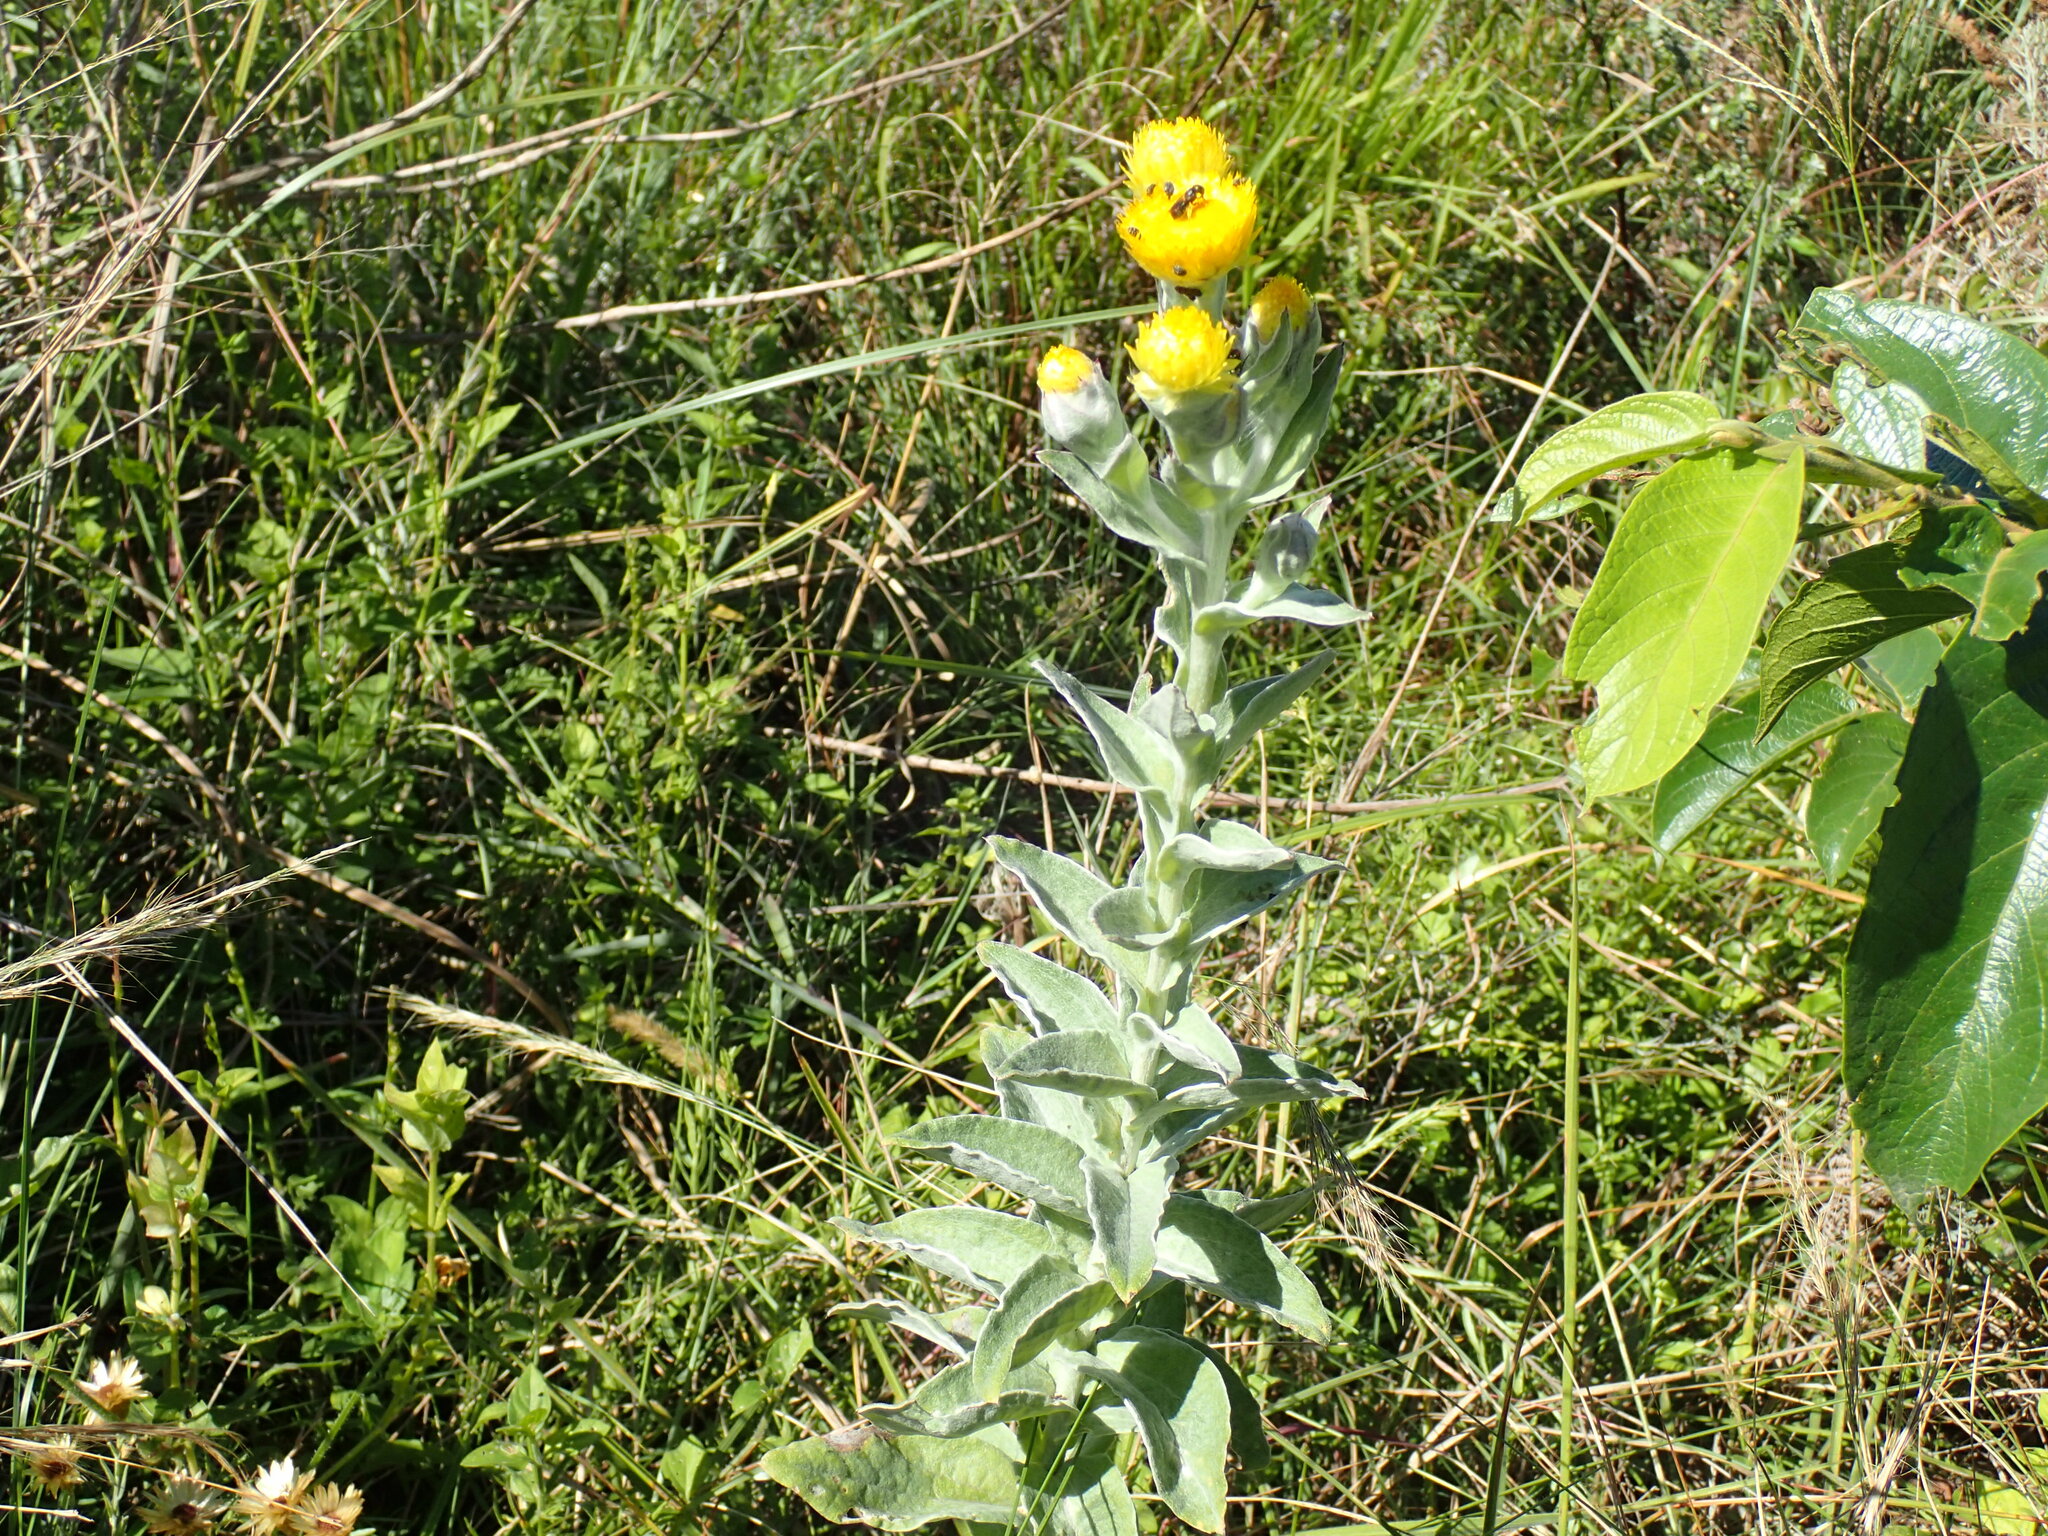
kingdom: Plantae
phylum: Tracheophyta
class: Magnoliopsida
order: Asterales
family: Asteraceae
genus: Helichrysum
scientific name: Helichrysum decorum
